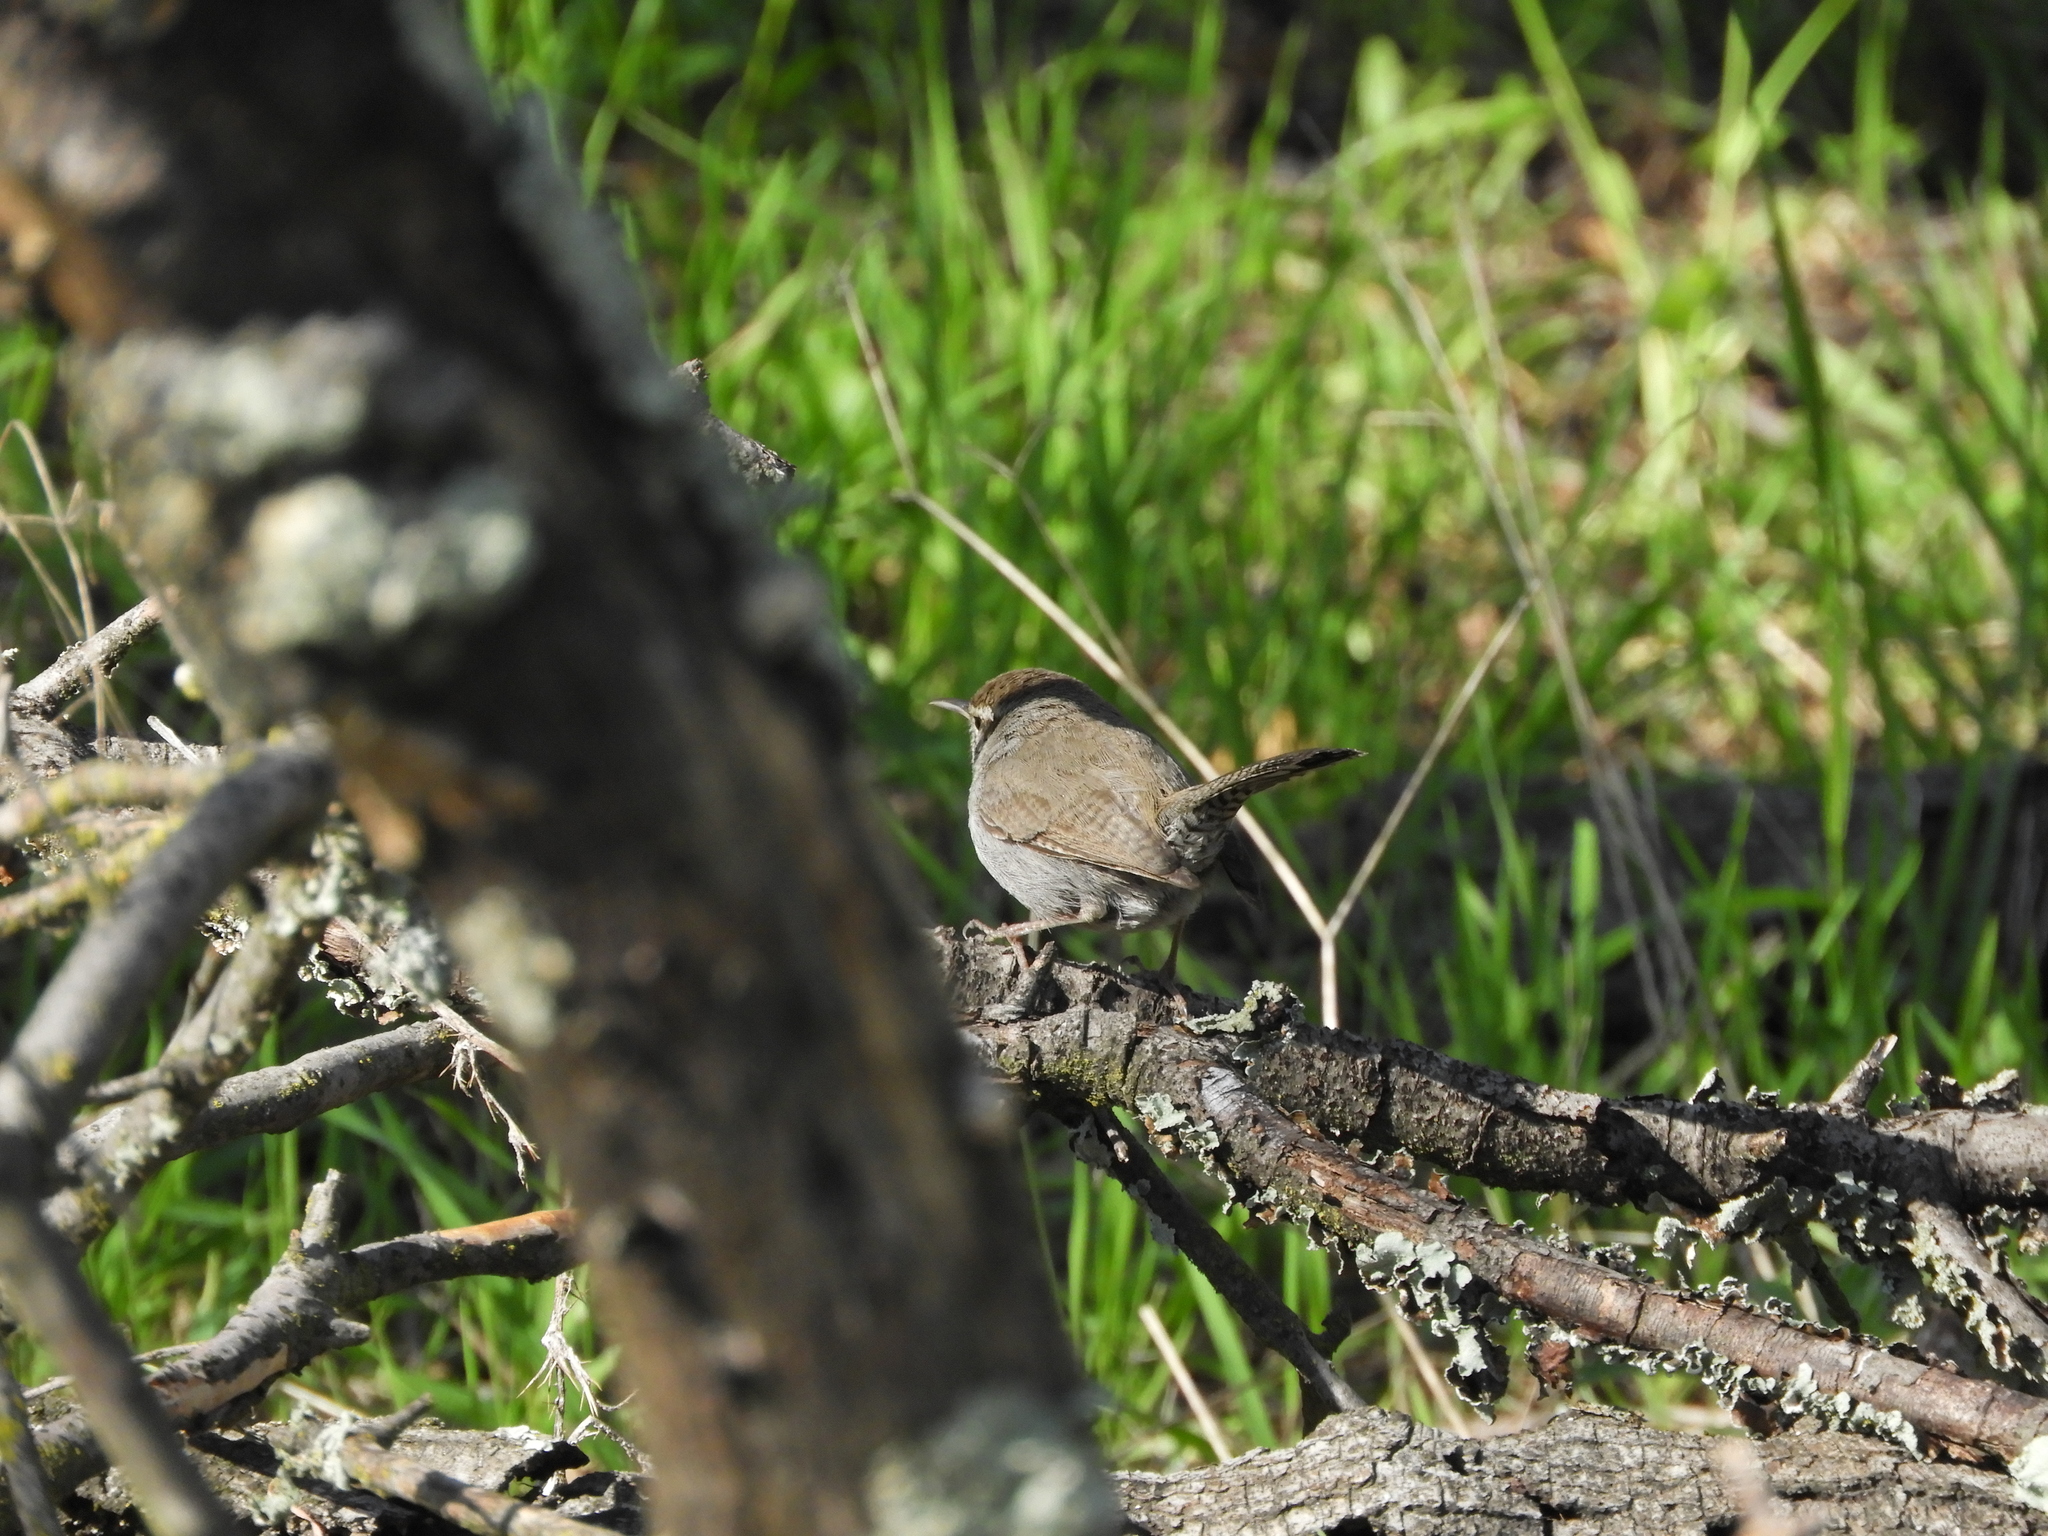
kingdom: Animalia
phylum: Chordata
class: Aves
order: Passeriformes
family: Troglodytidae
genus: Thryomanes
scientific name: Thryomanes bewickii
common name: Bewick's wren
